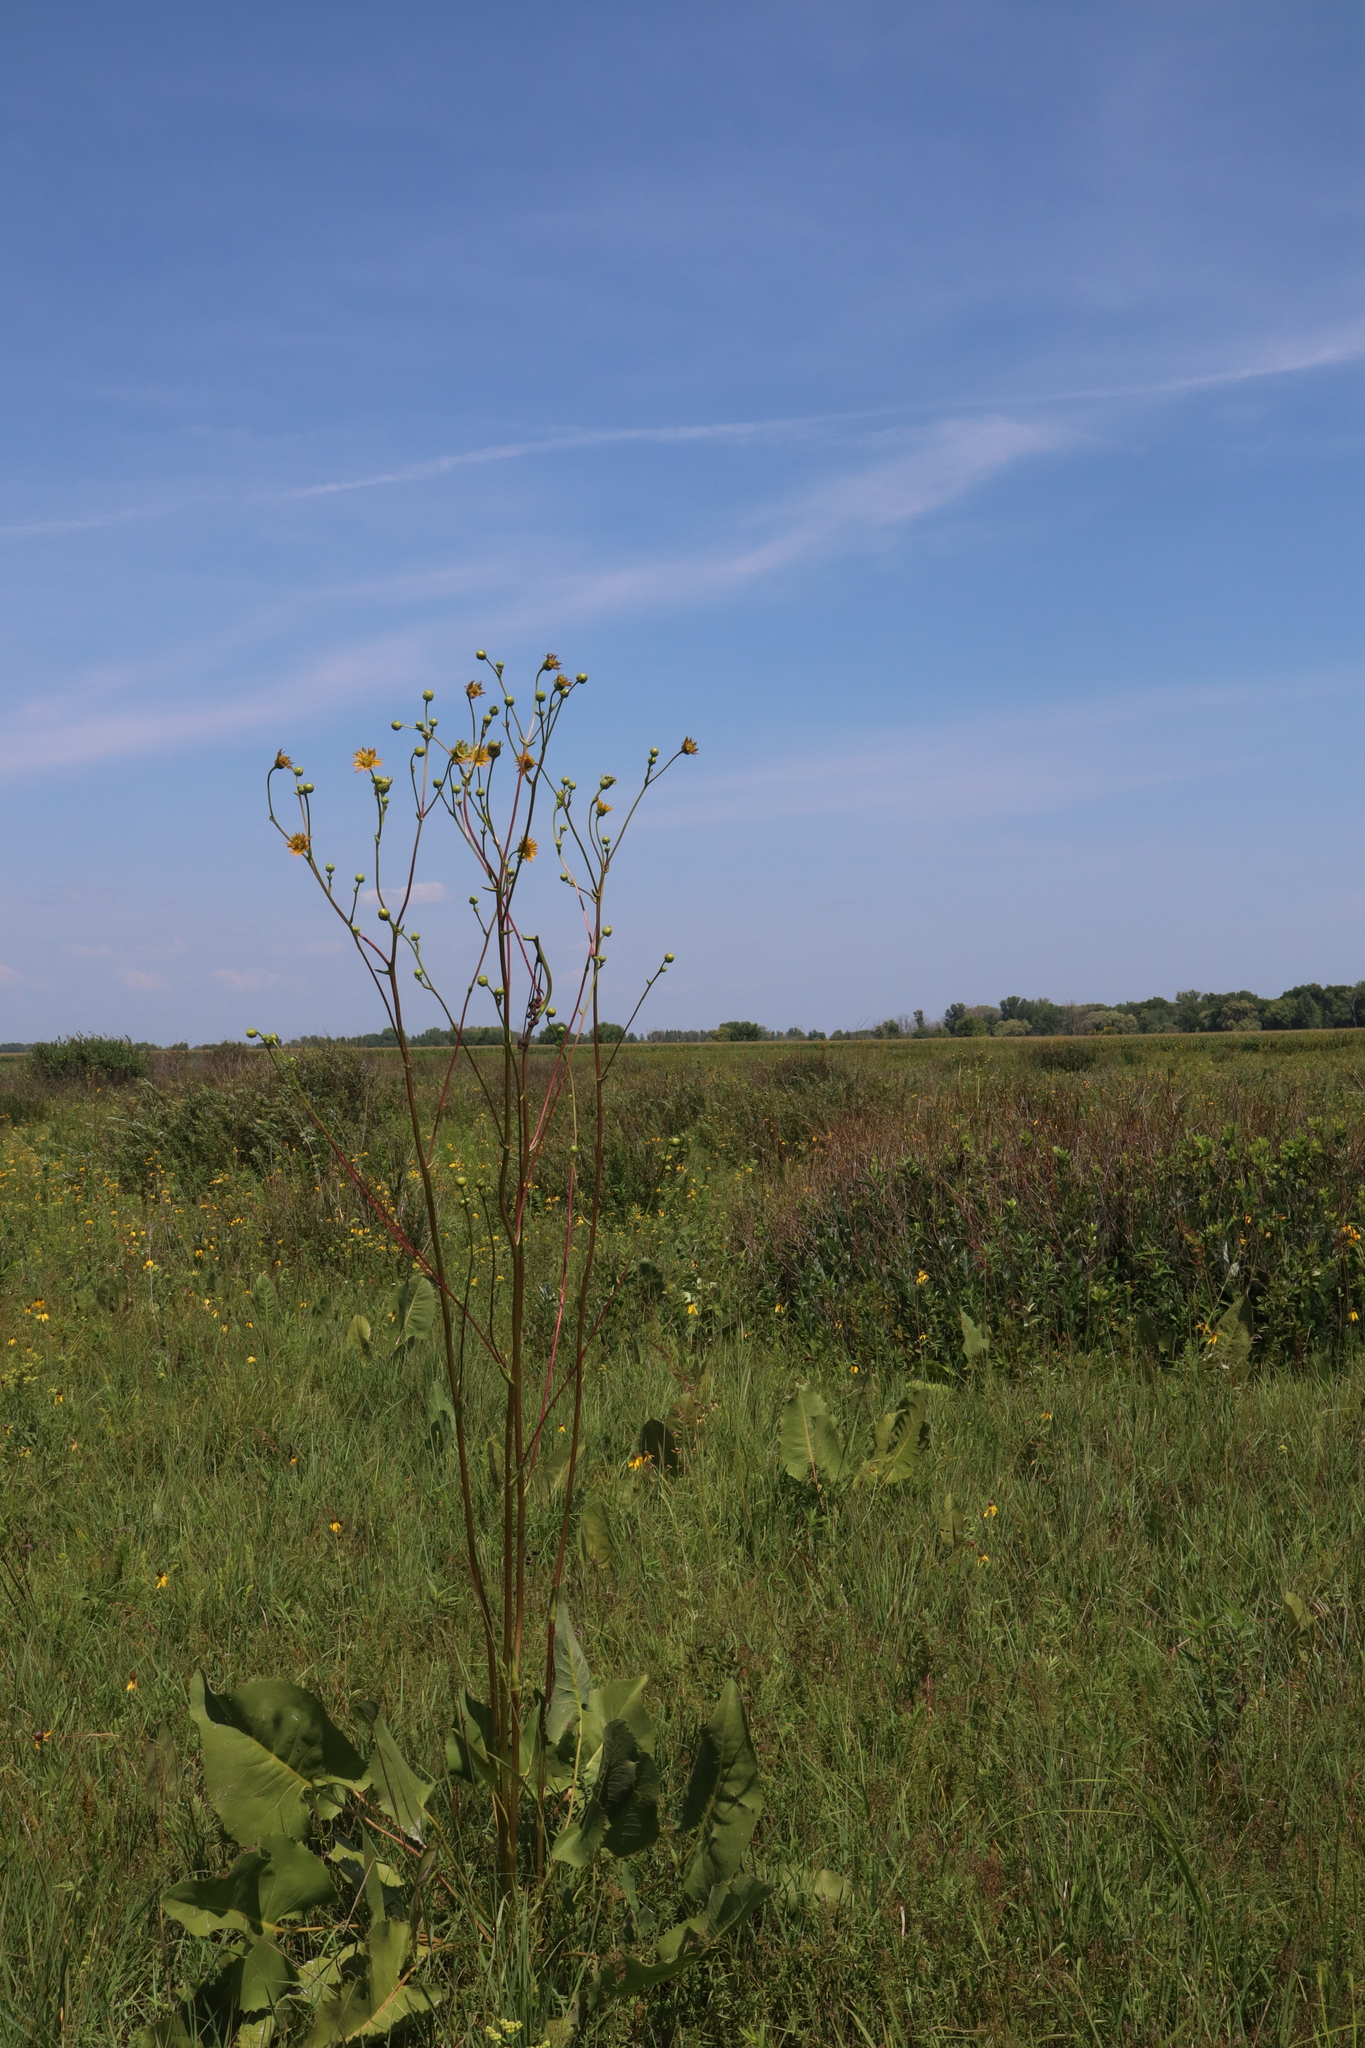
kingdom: Plantae
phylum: Tracheophyta
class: Magnoliopsida
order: Asterales
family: Asteraceae
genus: Silphium
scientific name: Silphium terebinthinaceum
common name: Basal-leaf rosinweed
